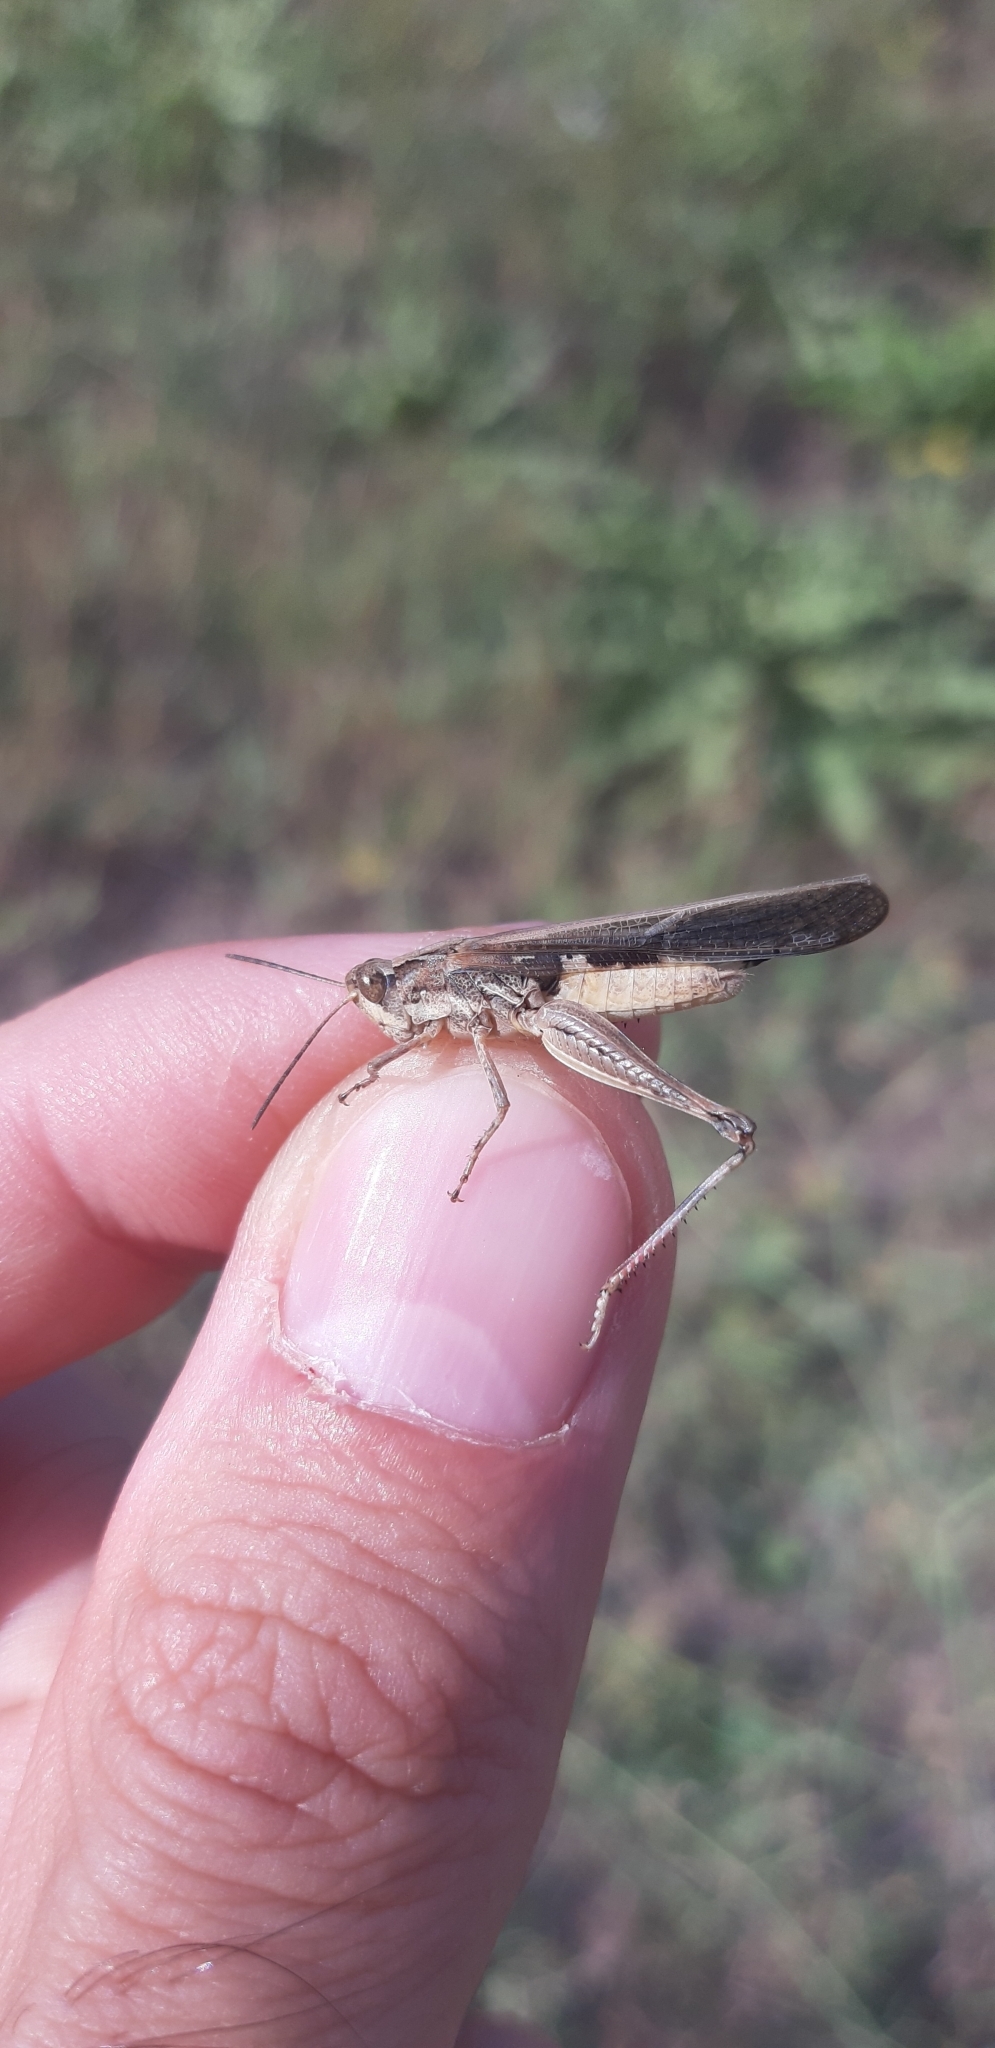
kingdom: Animalia
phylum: Arthropoda
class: Insecta
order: Orthoptera
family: Acrididae
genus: Aiolopus
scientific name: Aiolopus puissanti
